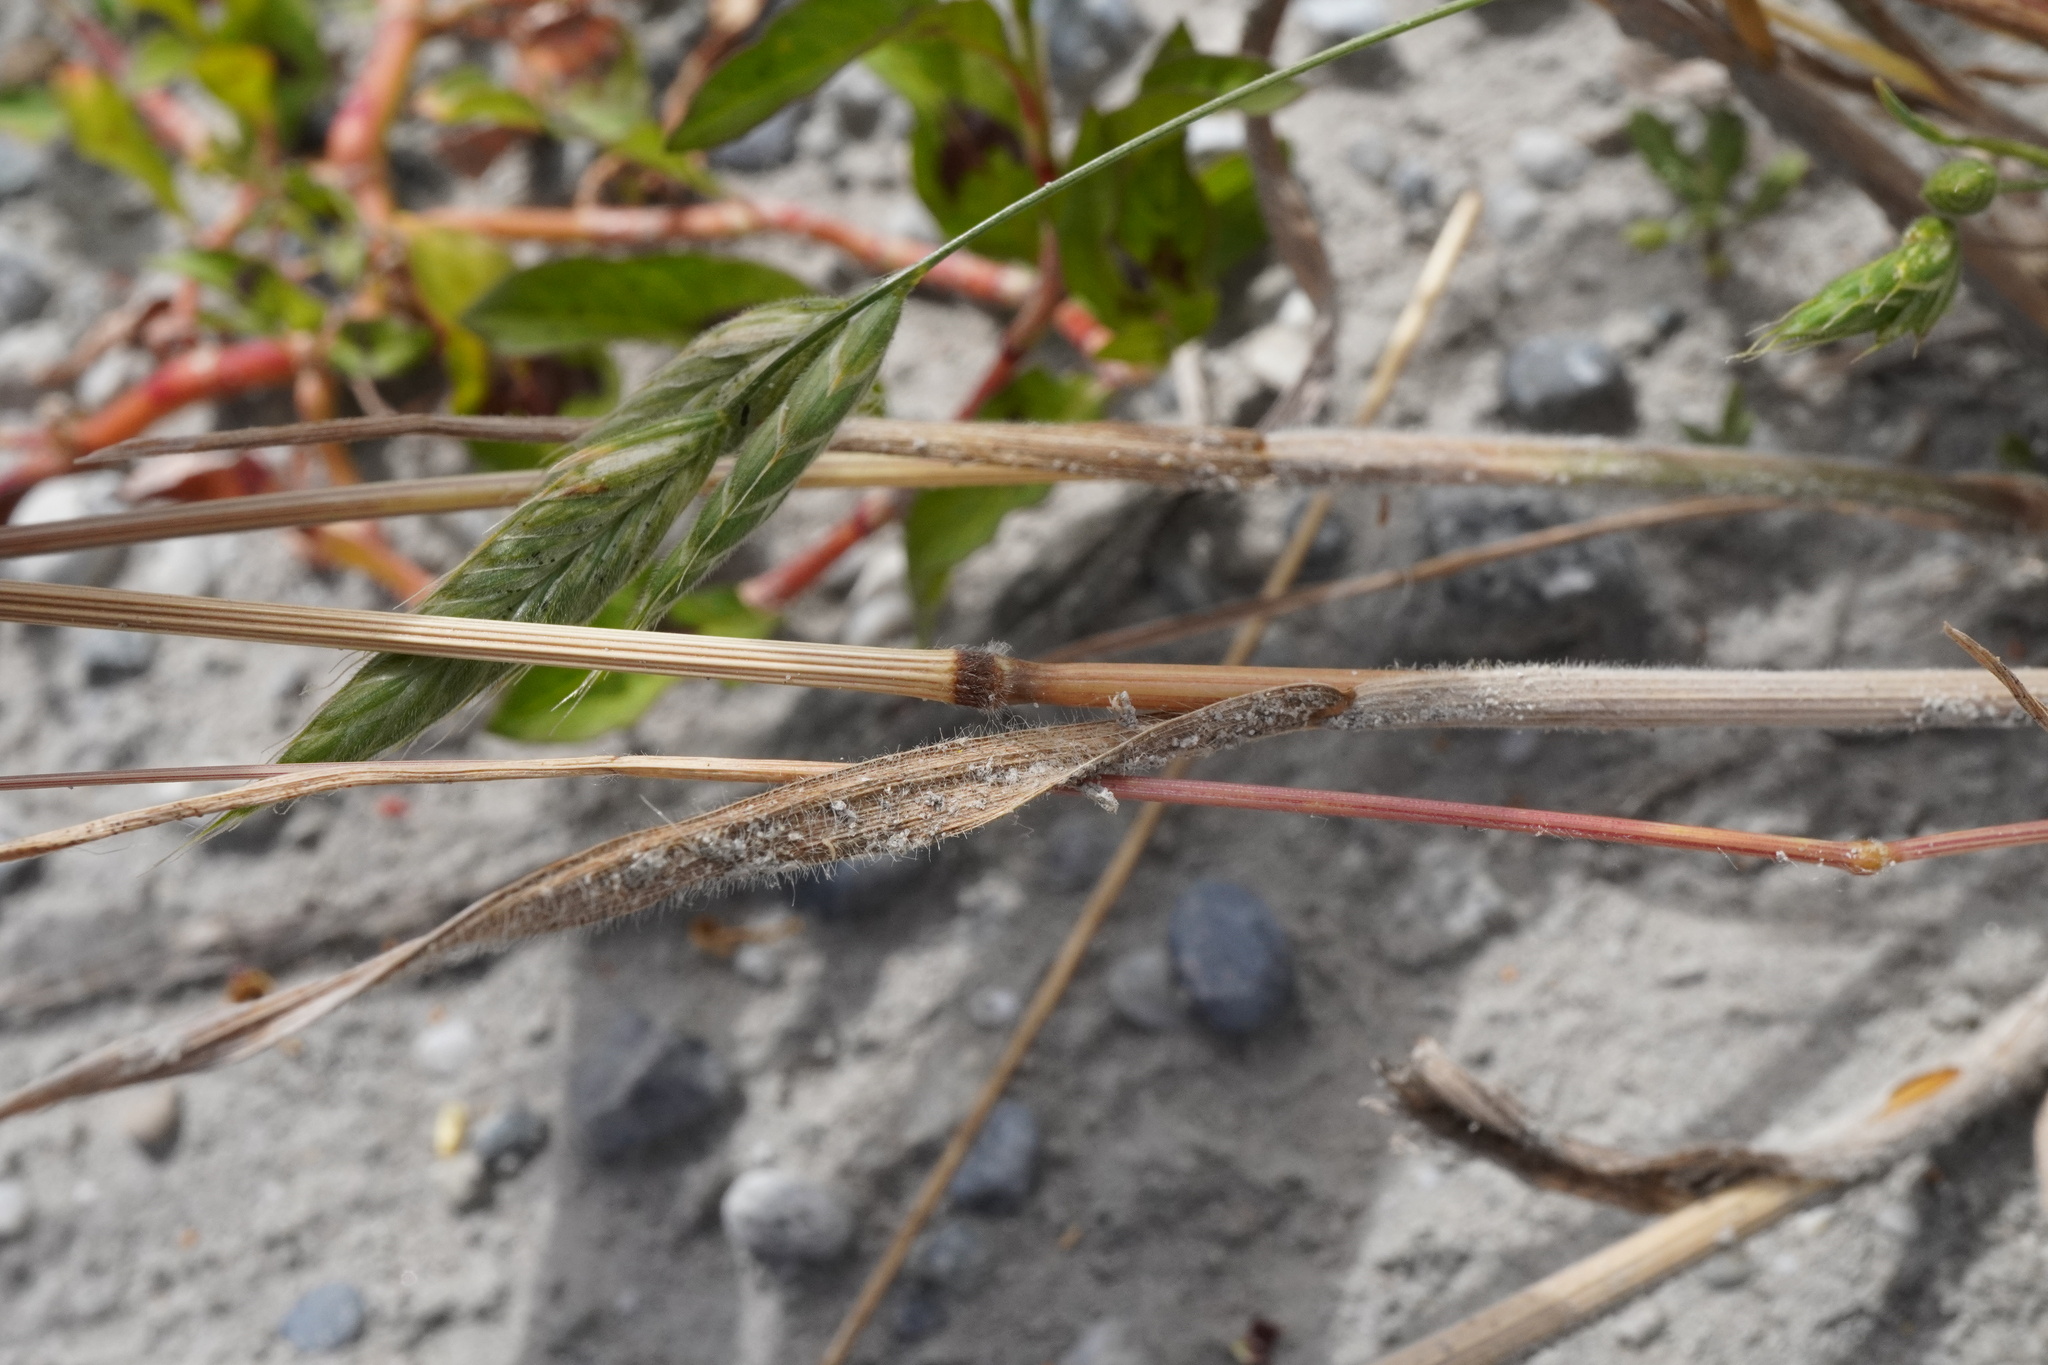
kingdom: Plantae
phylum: Tracheophyta
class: Liliopsida
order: Poales
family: Poaceae
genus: Bromus
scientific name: Bromus hordeaceus
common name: Soft brome
